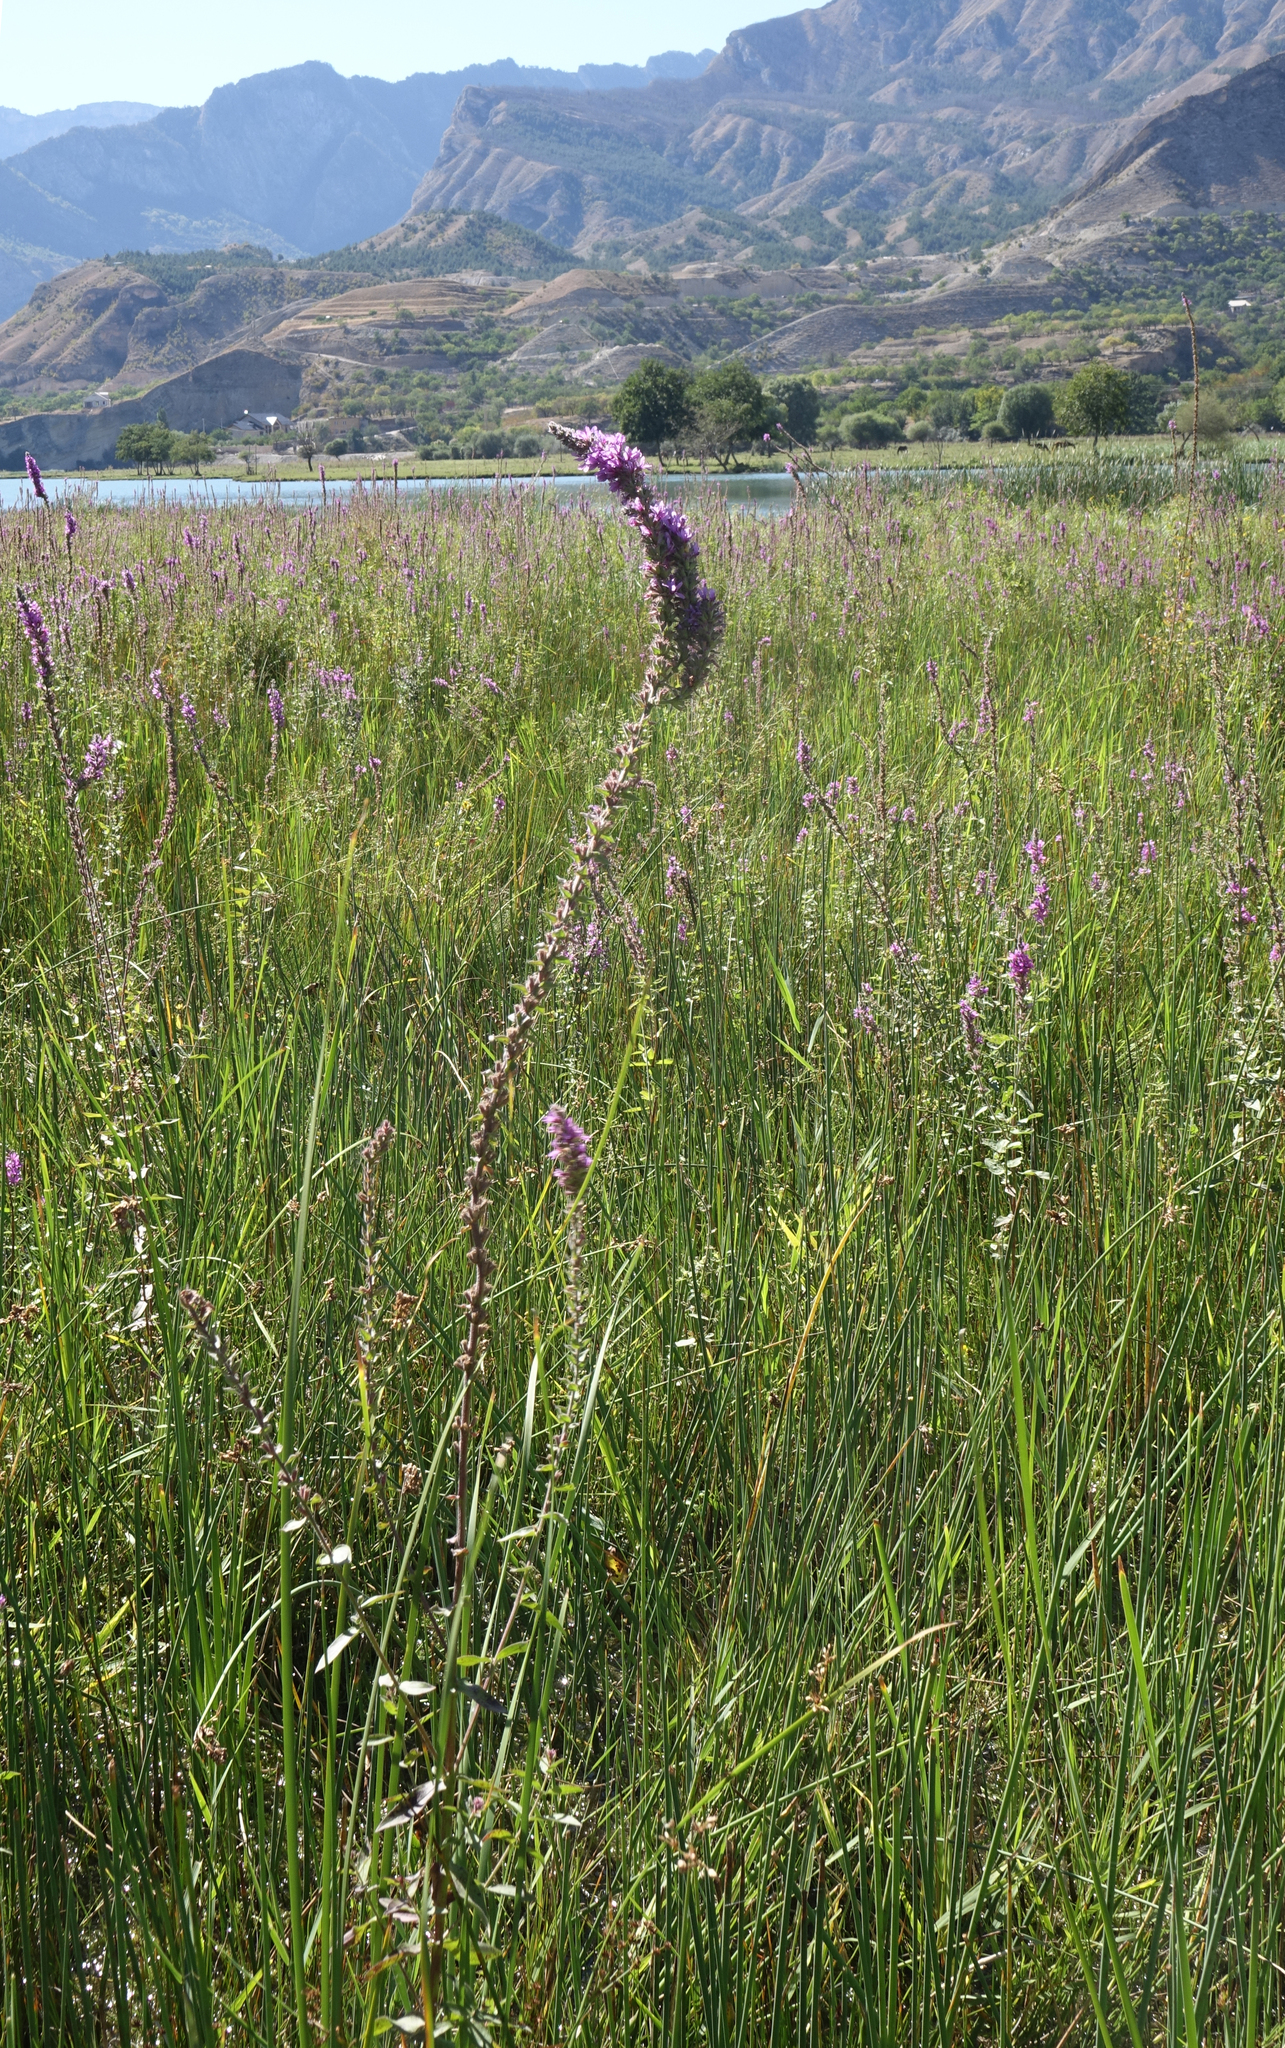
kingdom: Plantae
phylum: Tracheophyta
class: Magnoliopsida
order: Myrtales
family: Lythraceae
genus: Lythrum
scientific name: Lythrum salicaria
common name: Purple loosestrife
